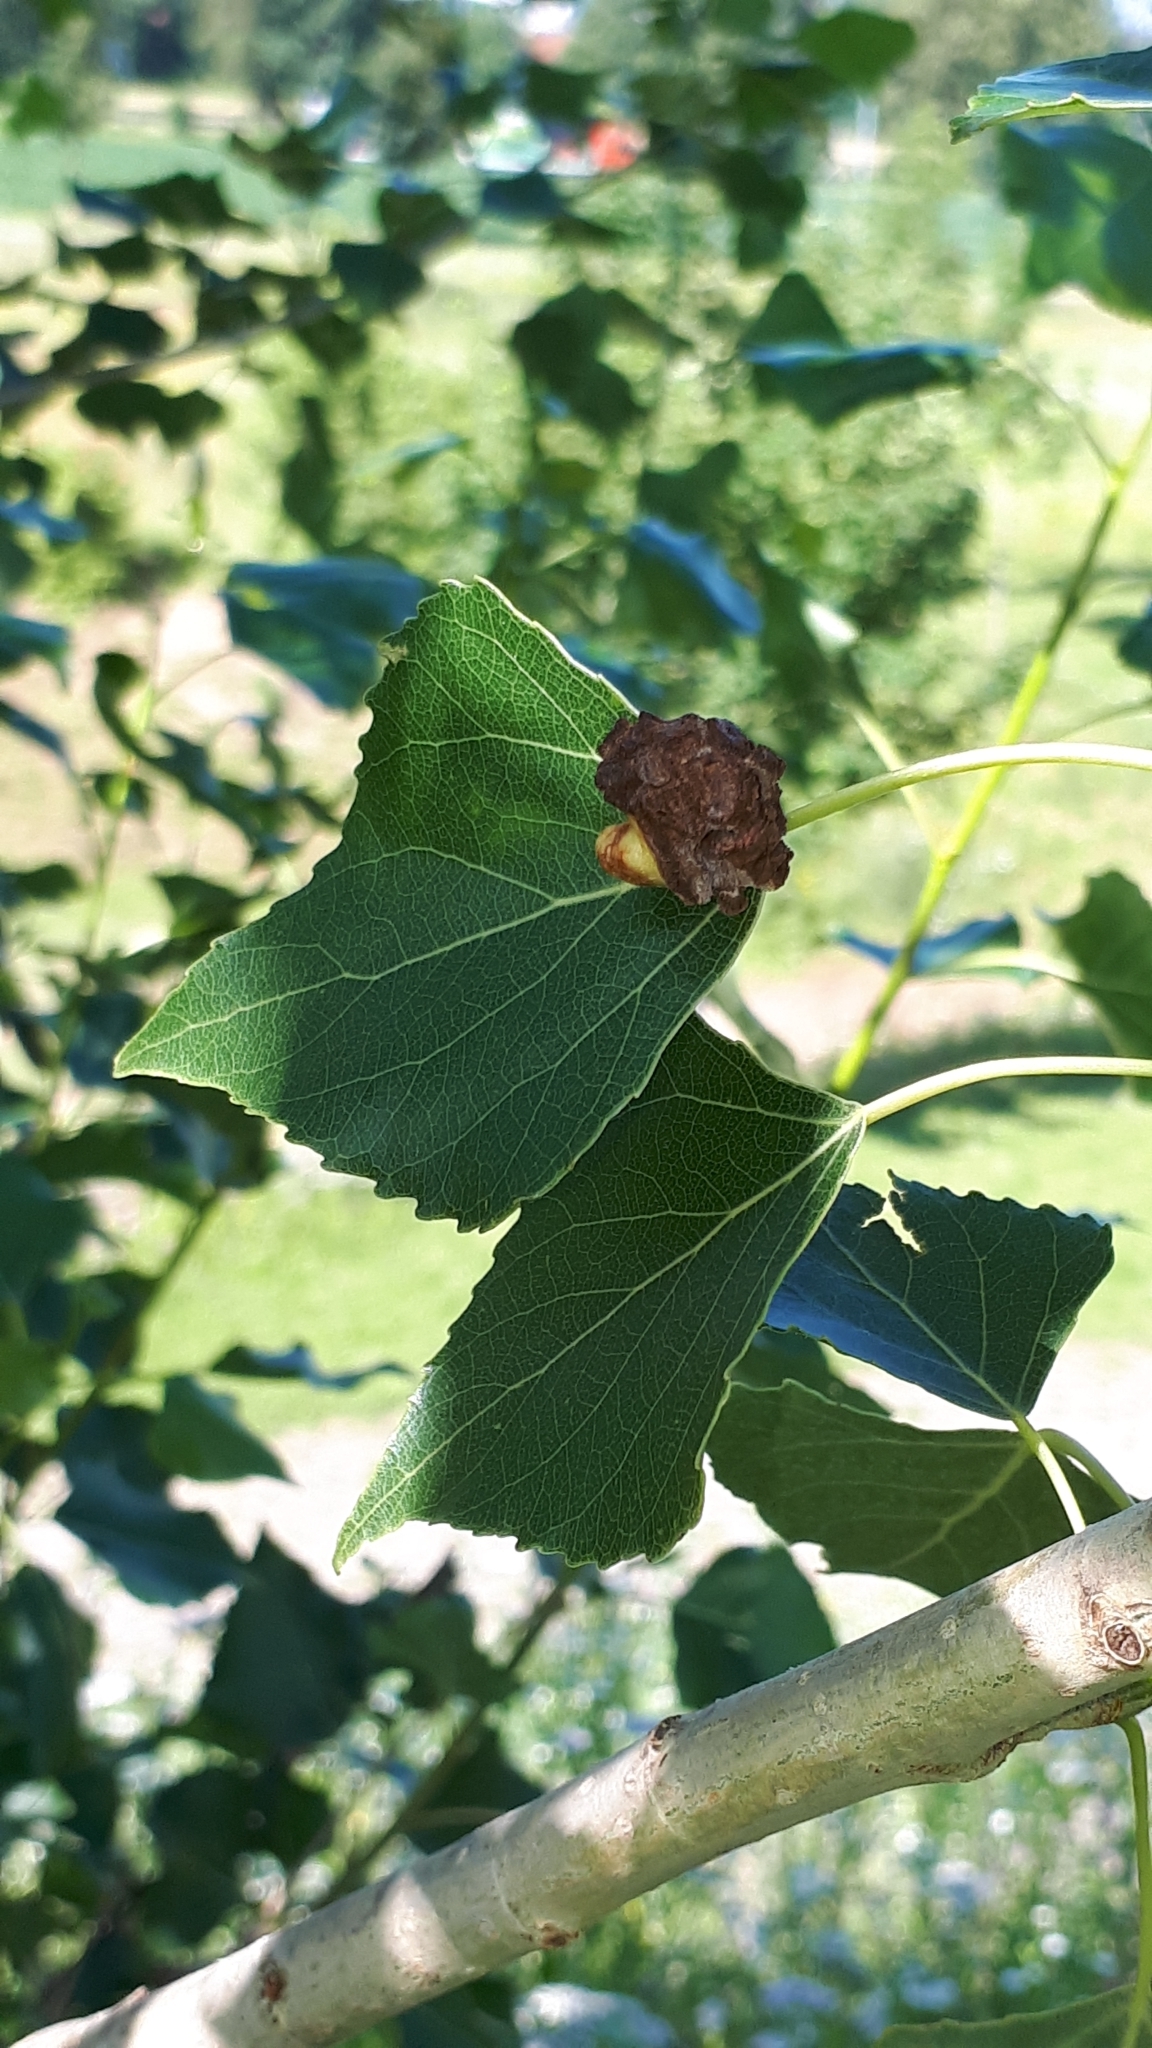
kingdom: Animalia
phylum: Arthropoda
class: Arachnida
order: Trombidiformes
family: Eriophyidae
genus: Eriophyes
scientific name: Eriophyes diversipunctatus
